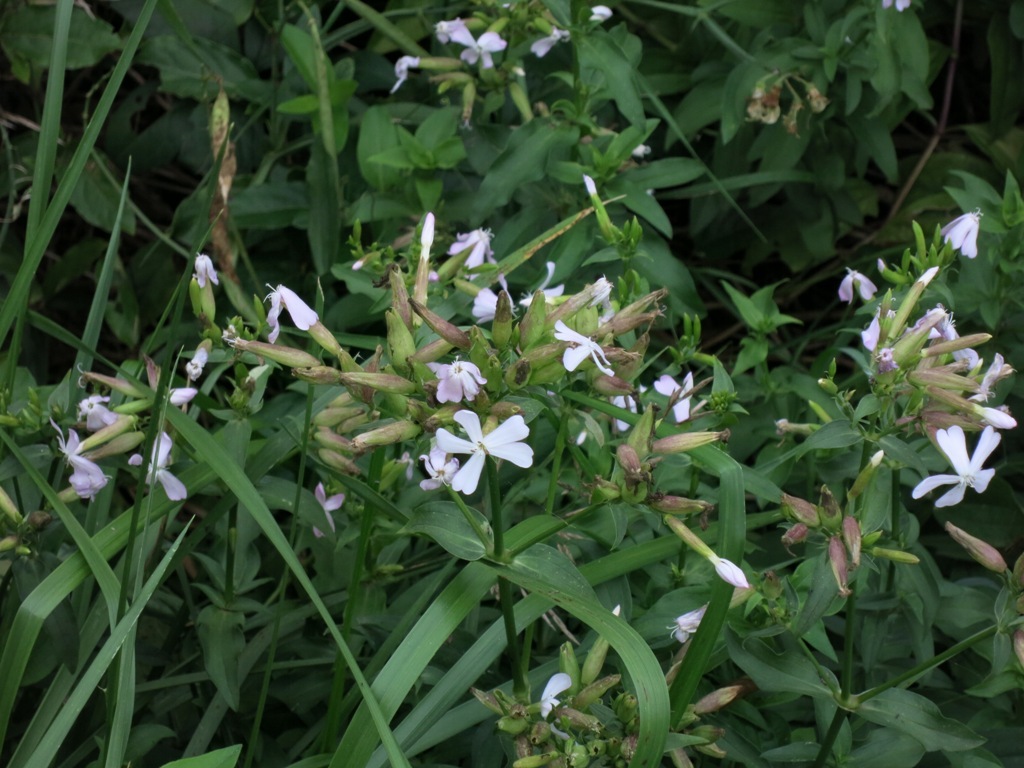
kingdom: Plantae
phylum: Tracheophyta
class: Magnoliopsida
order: Caryophyllales
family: Caryophyllaceae
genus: Saponaria
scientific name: Saponaria officinalis
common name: Soapwort
